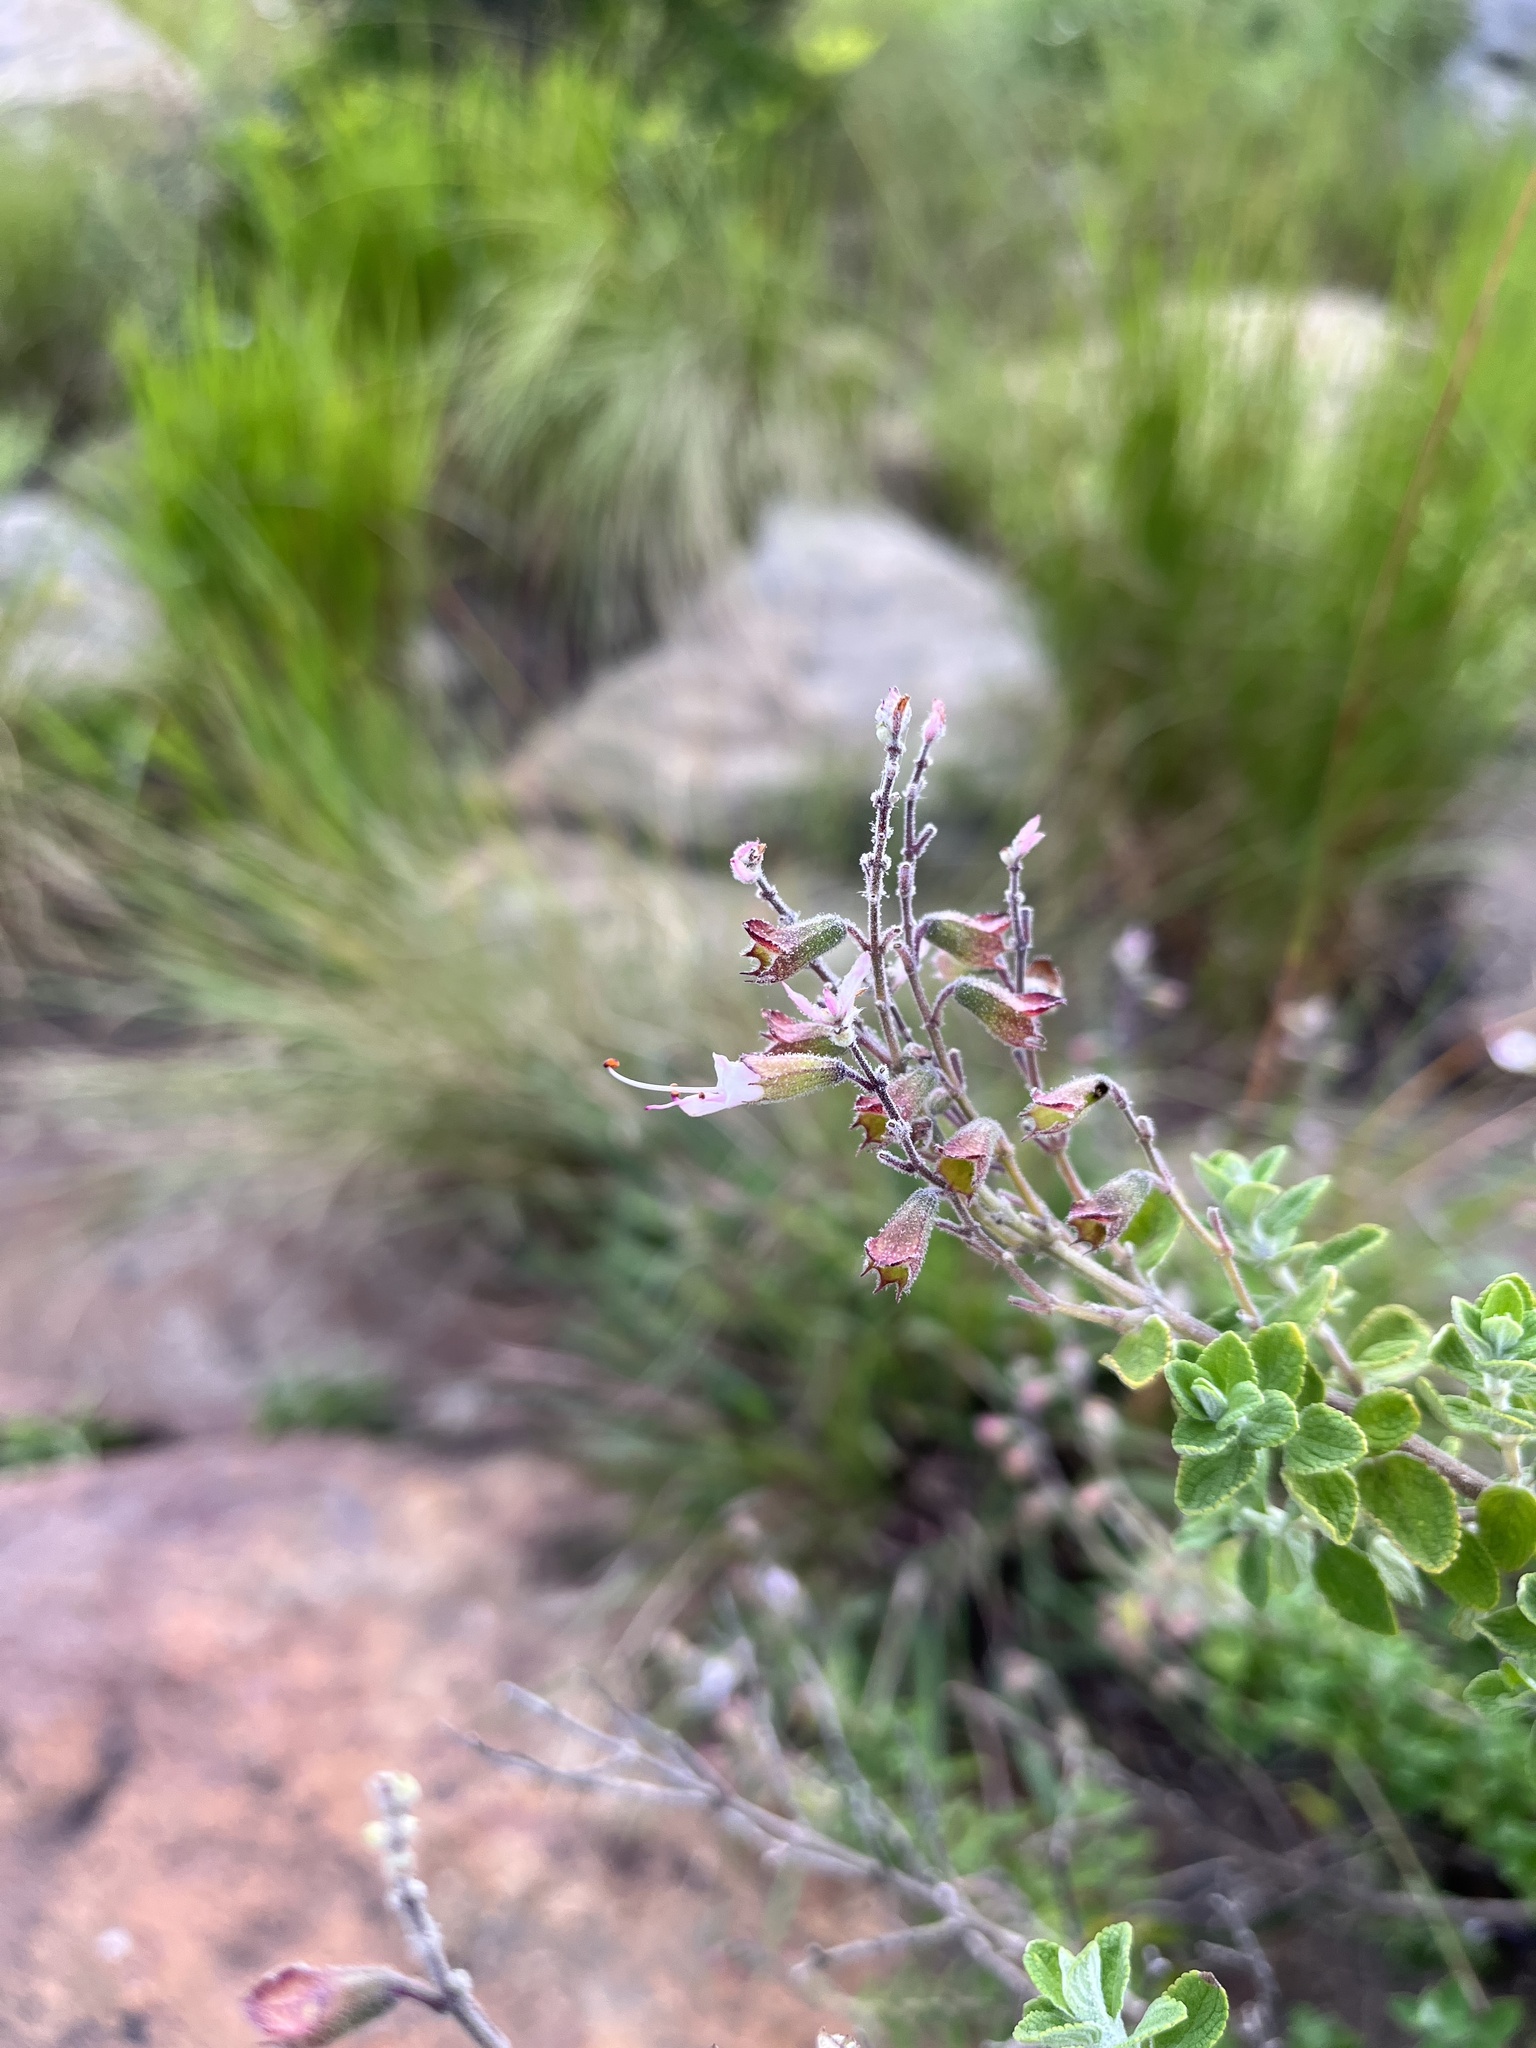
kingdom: Plantae
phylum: Tracheophyta
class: Magnoliopsida
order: Lamiales
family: Lamiaceae
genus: Syncolostemon
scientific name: Syncolostemon parvifolius
